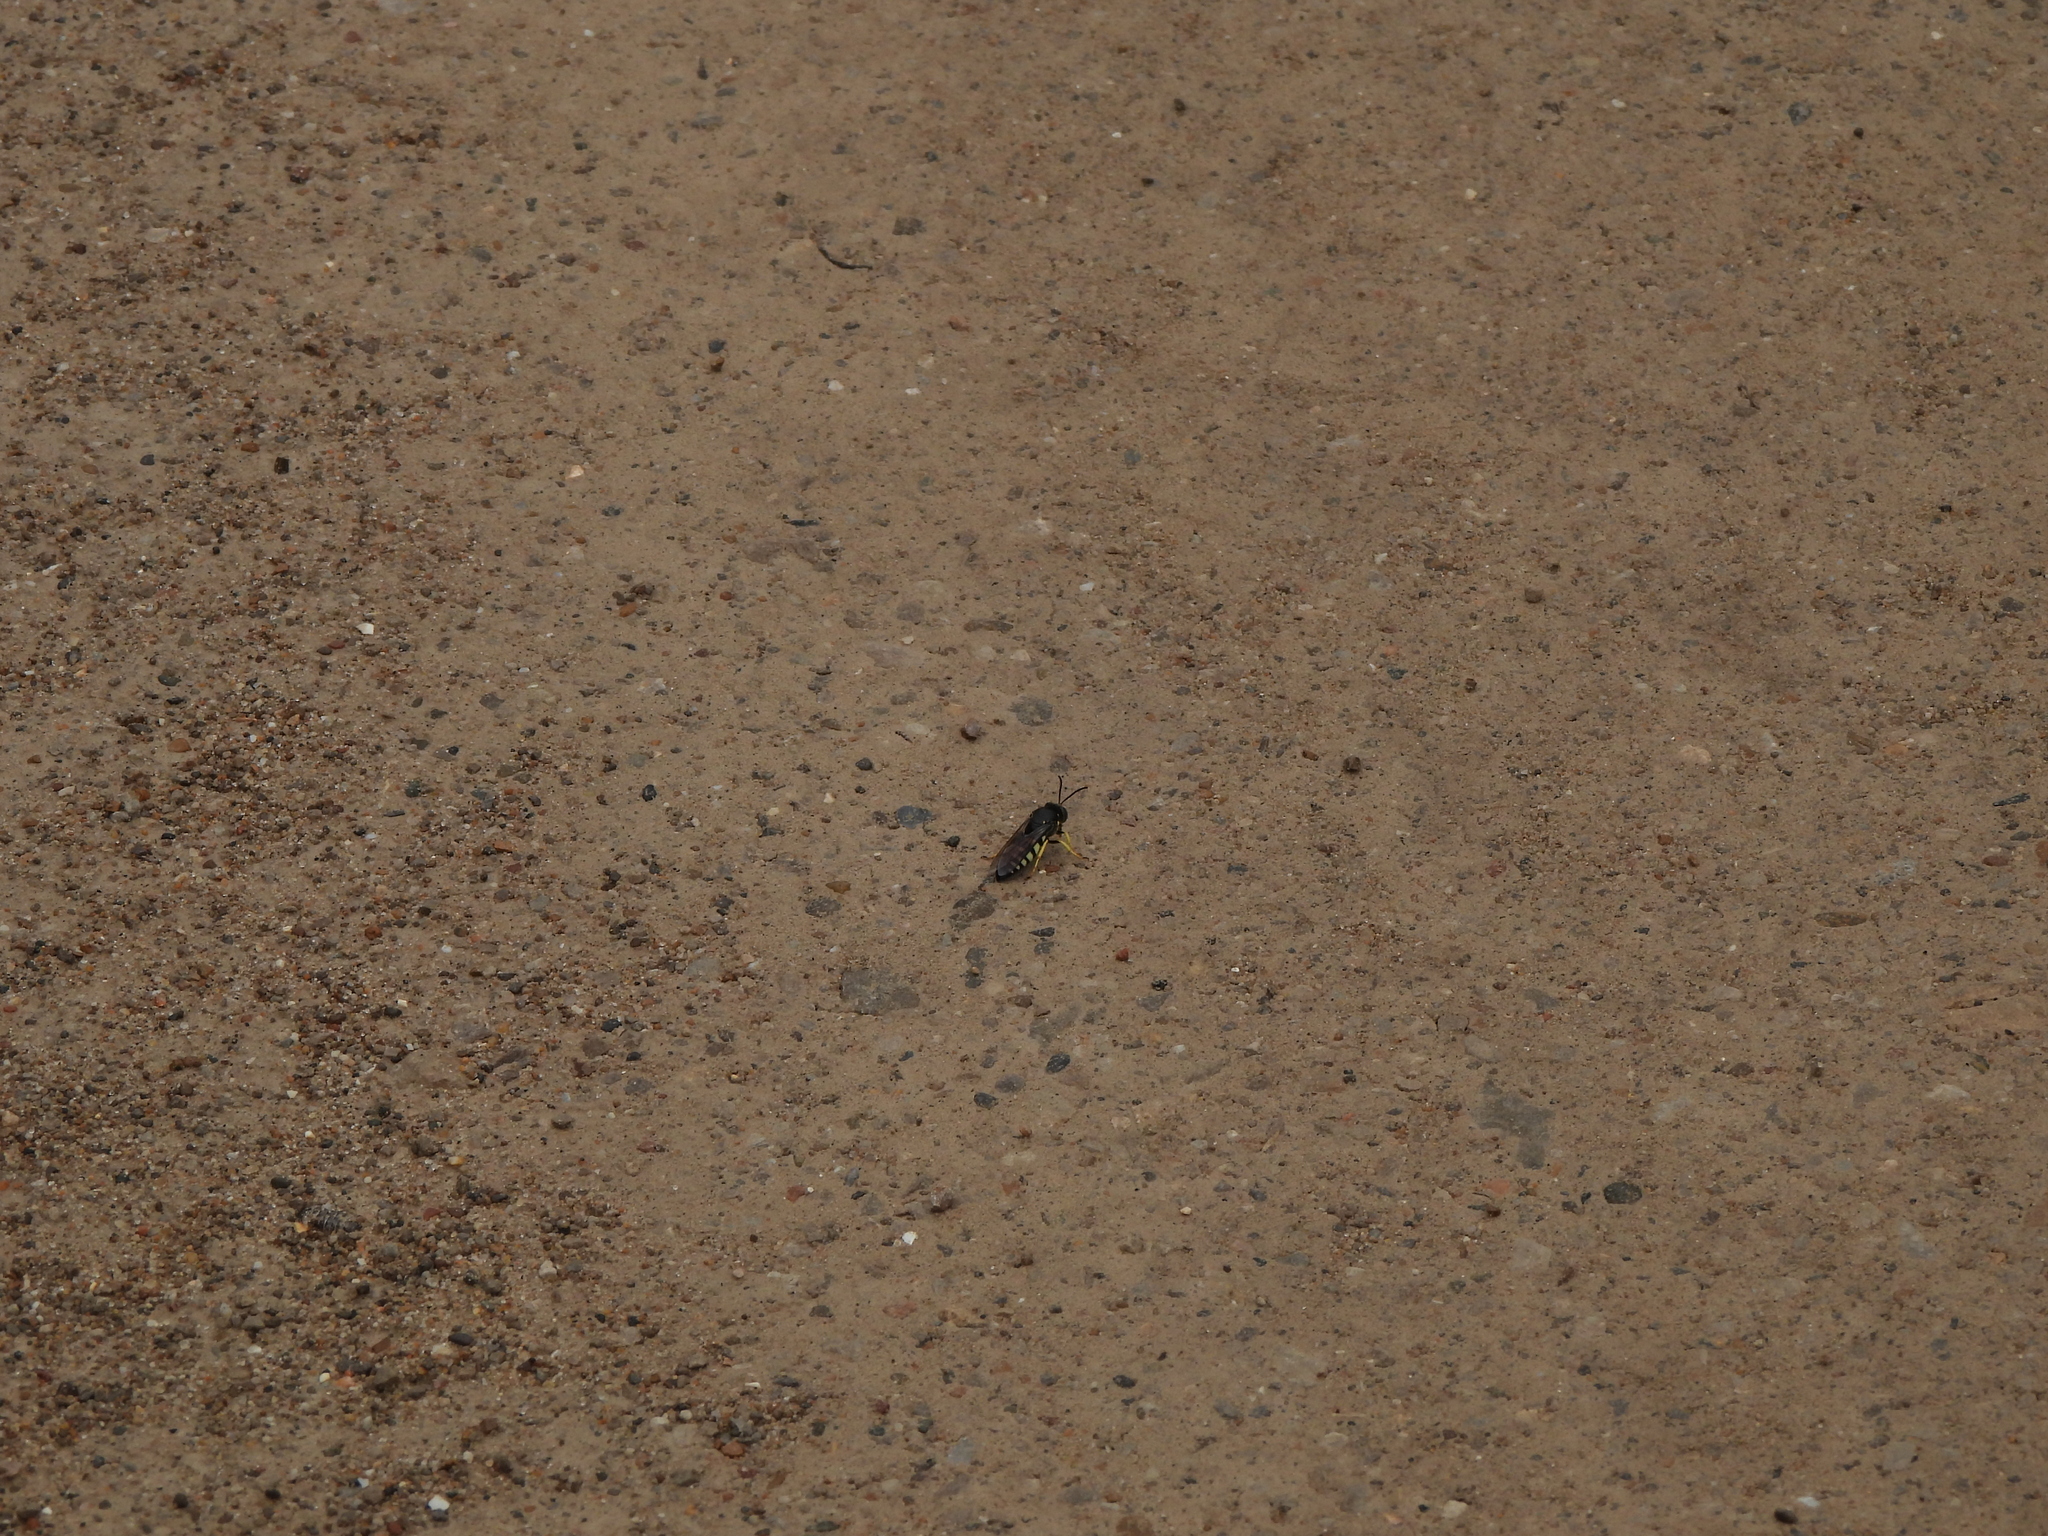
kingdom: Animalia
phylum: Arthropoda
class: Insecta
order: Hymenoptera
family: Crabronidae
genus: Bicyrtes
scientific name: Bicyrtes quadrifasciatus
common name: Four-banded stink bug hunter wasp
